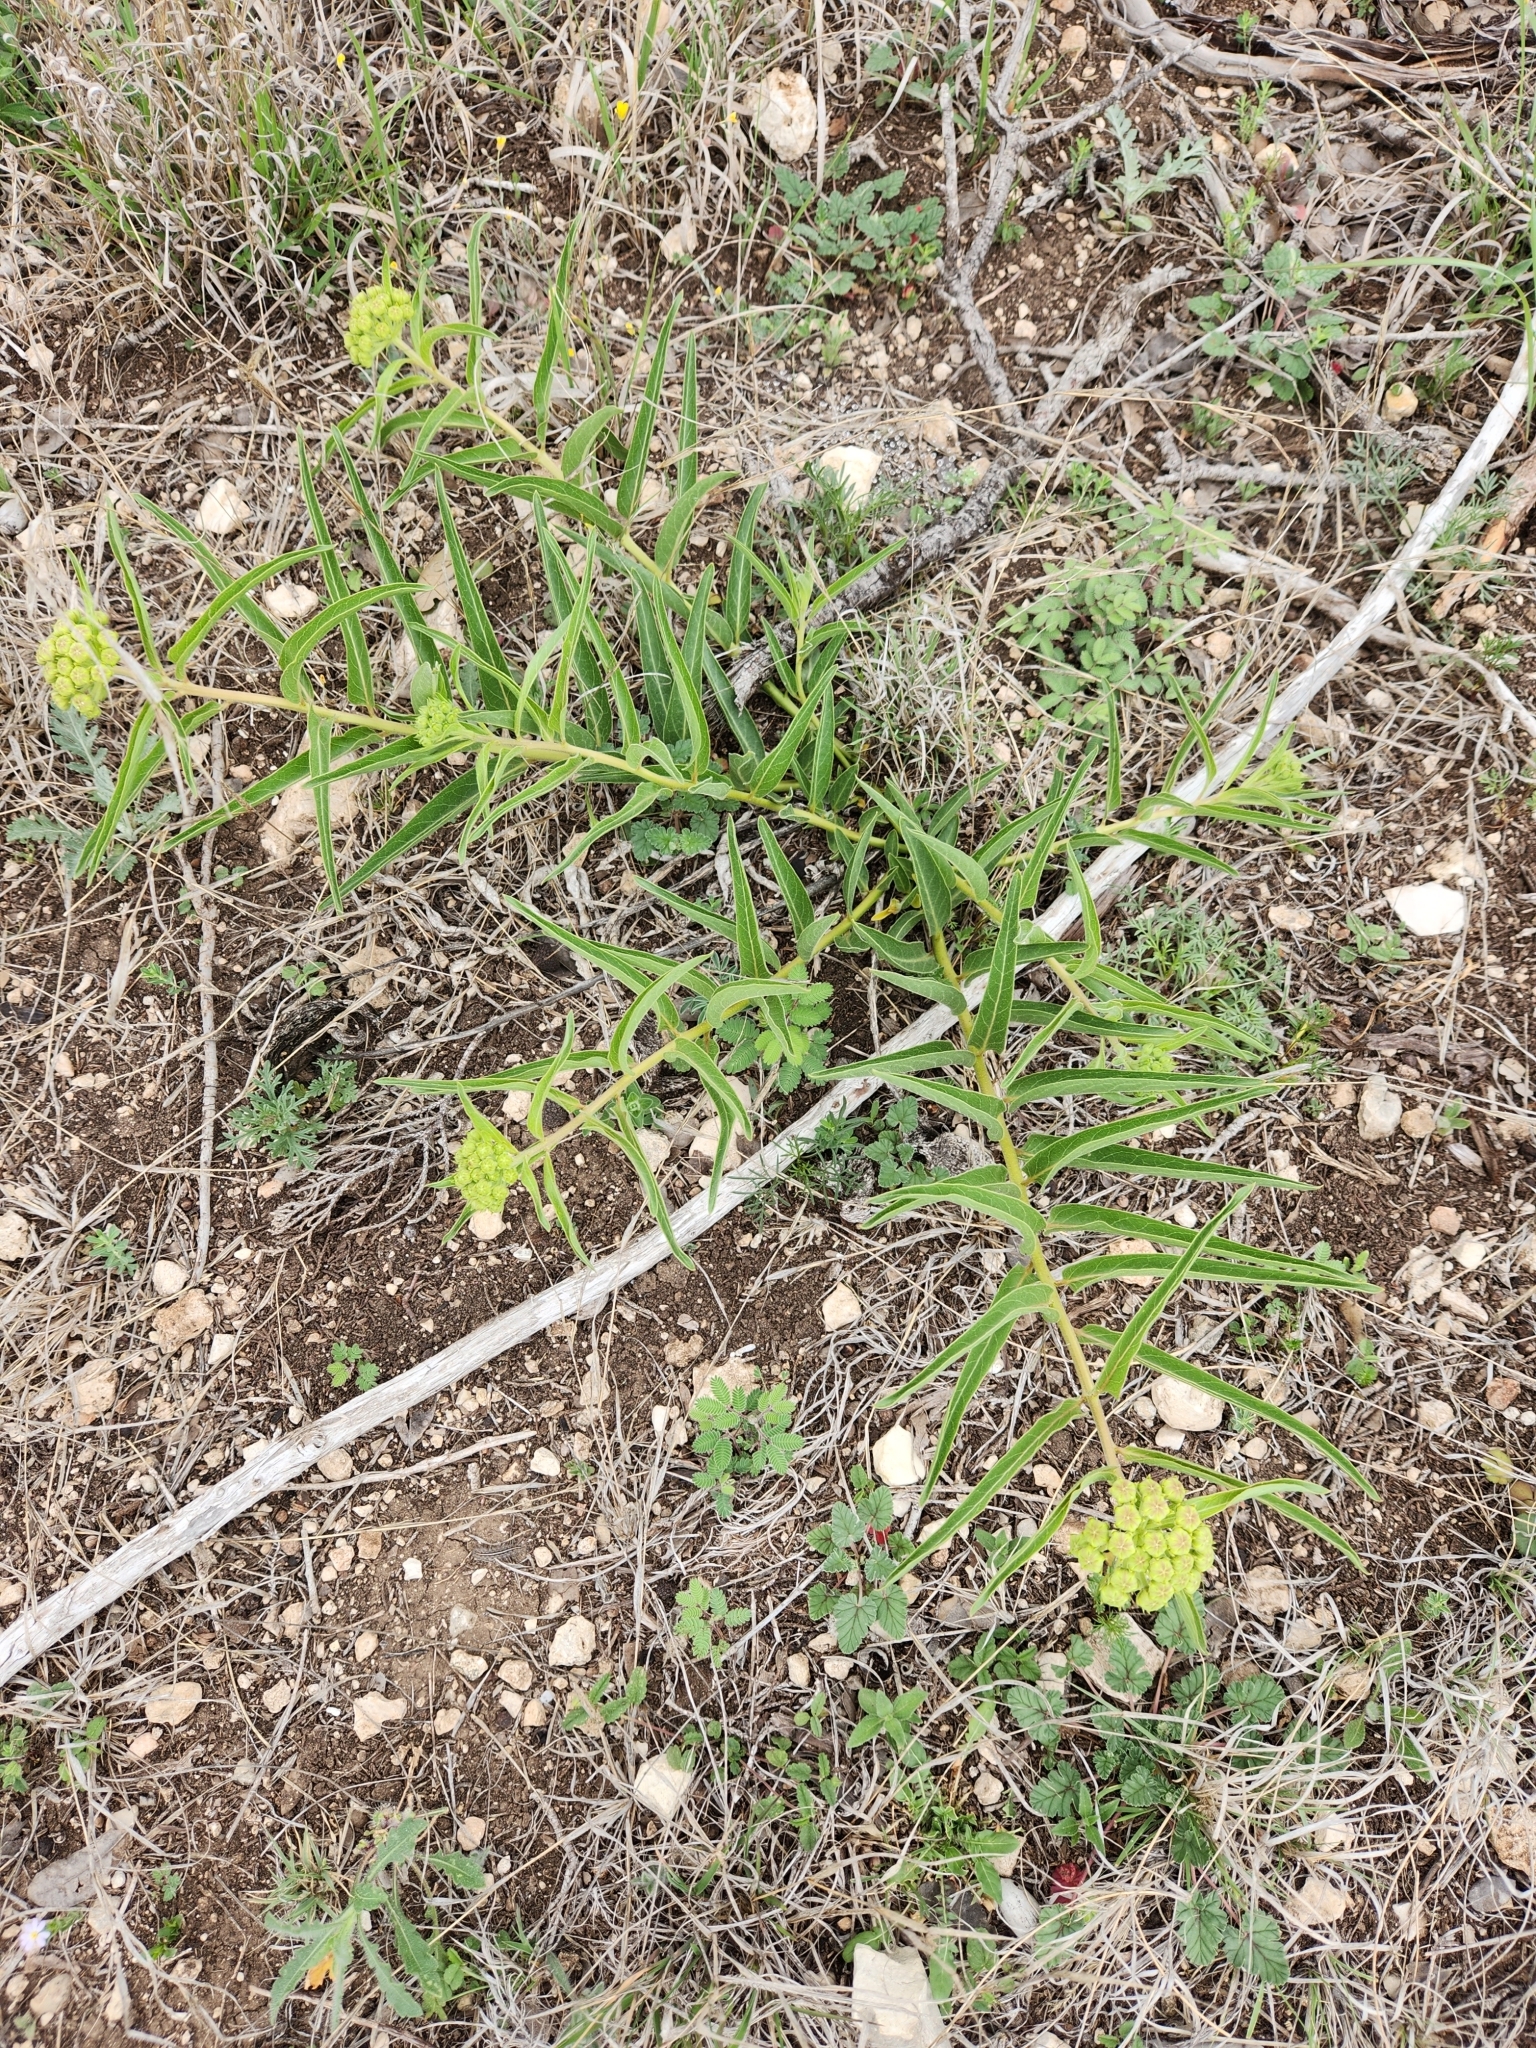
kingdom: Plantae
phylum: Tracheophyta
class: Magnoliopsida
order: Gentianales
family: Apocynaceae
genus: Asclepias
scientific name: Asclepias asperula
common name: Antelope horns
